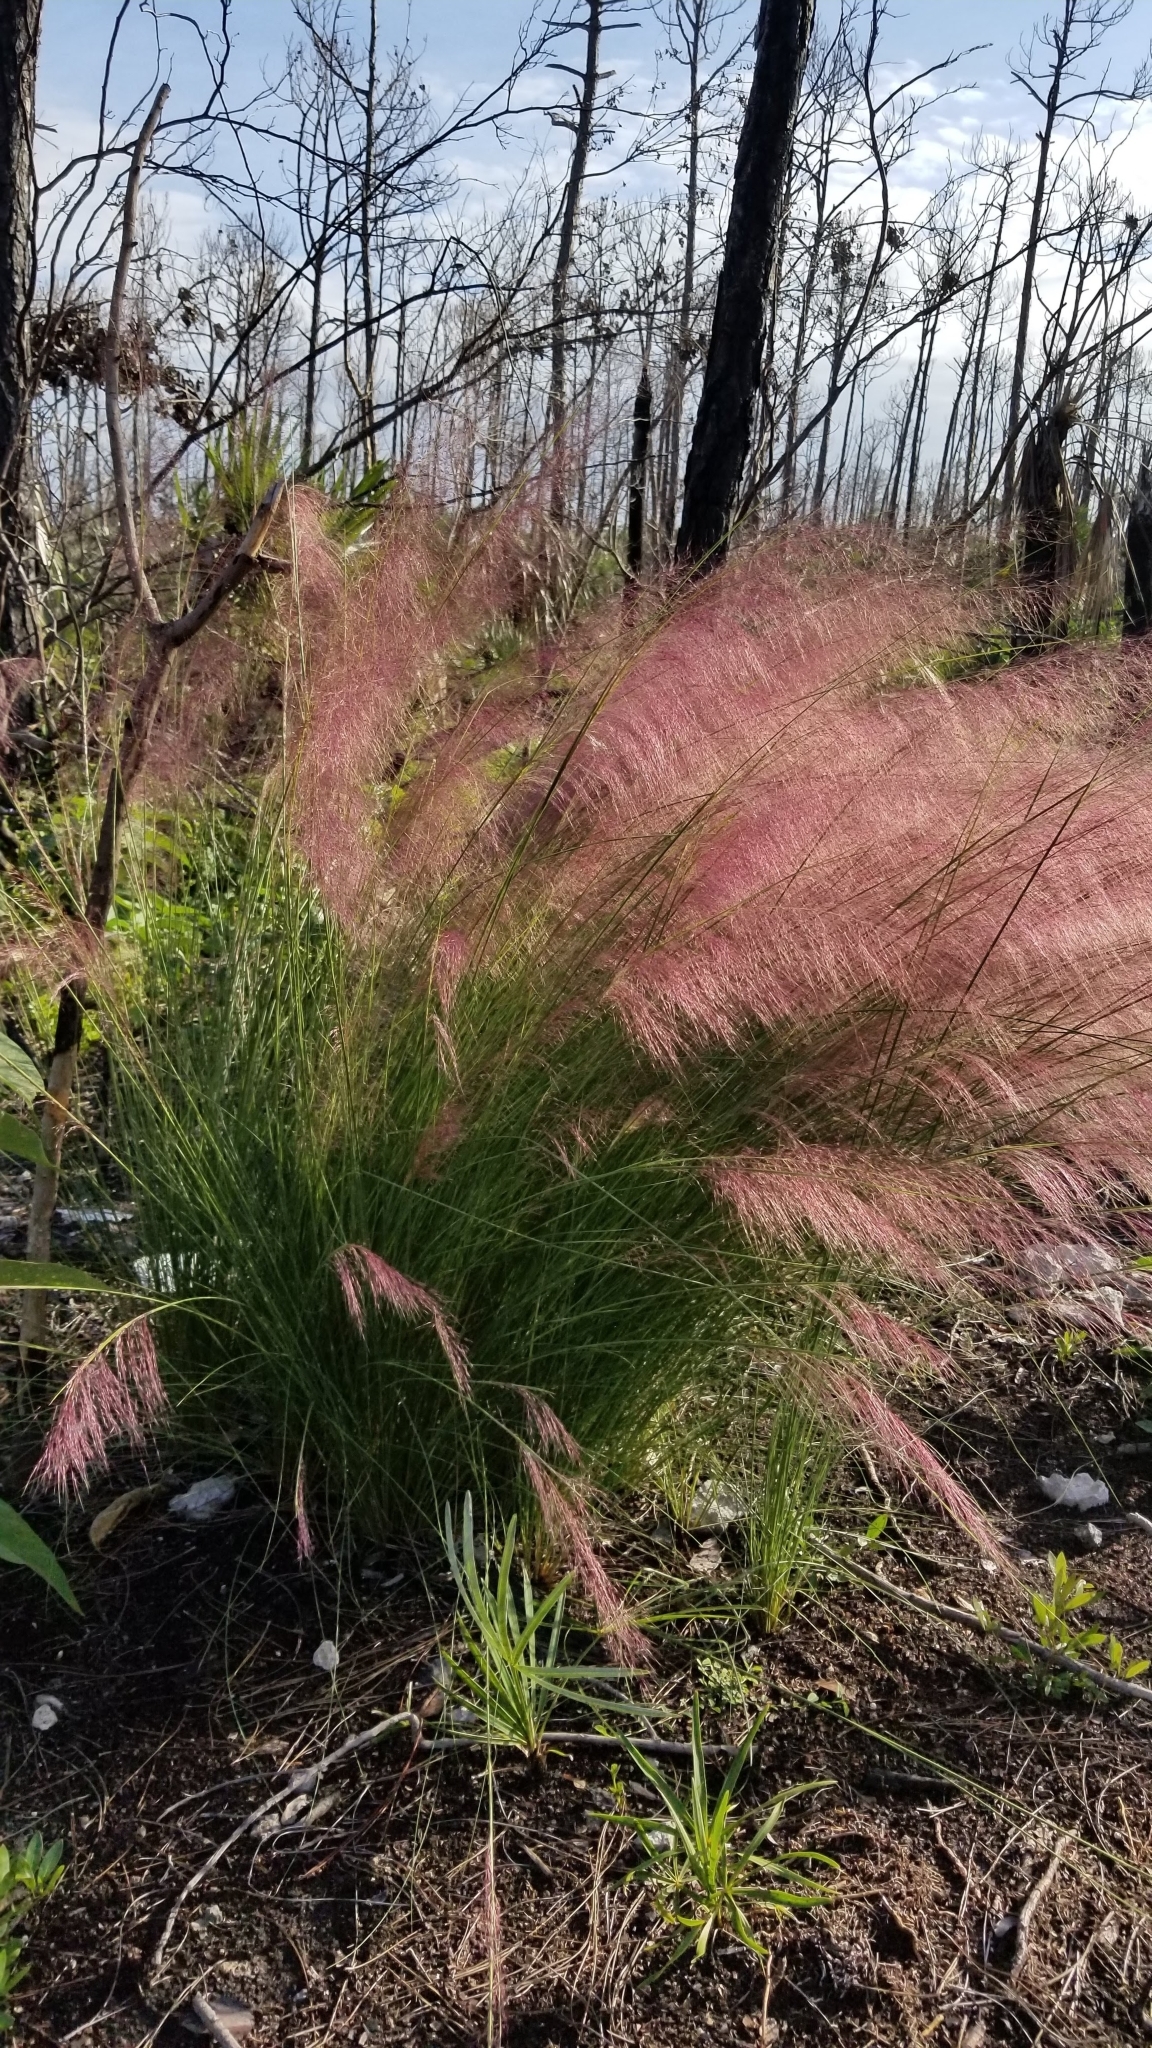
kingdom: Plantae
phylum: Tracheophyta
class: Liliopsida
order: Poales
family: Poaceae
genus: Muhlenbergia
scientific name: Muhlenbergia capillaris
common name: Purple grass
